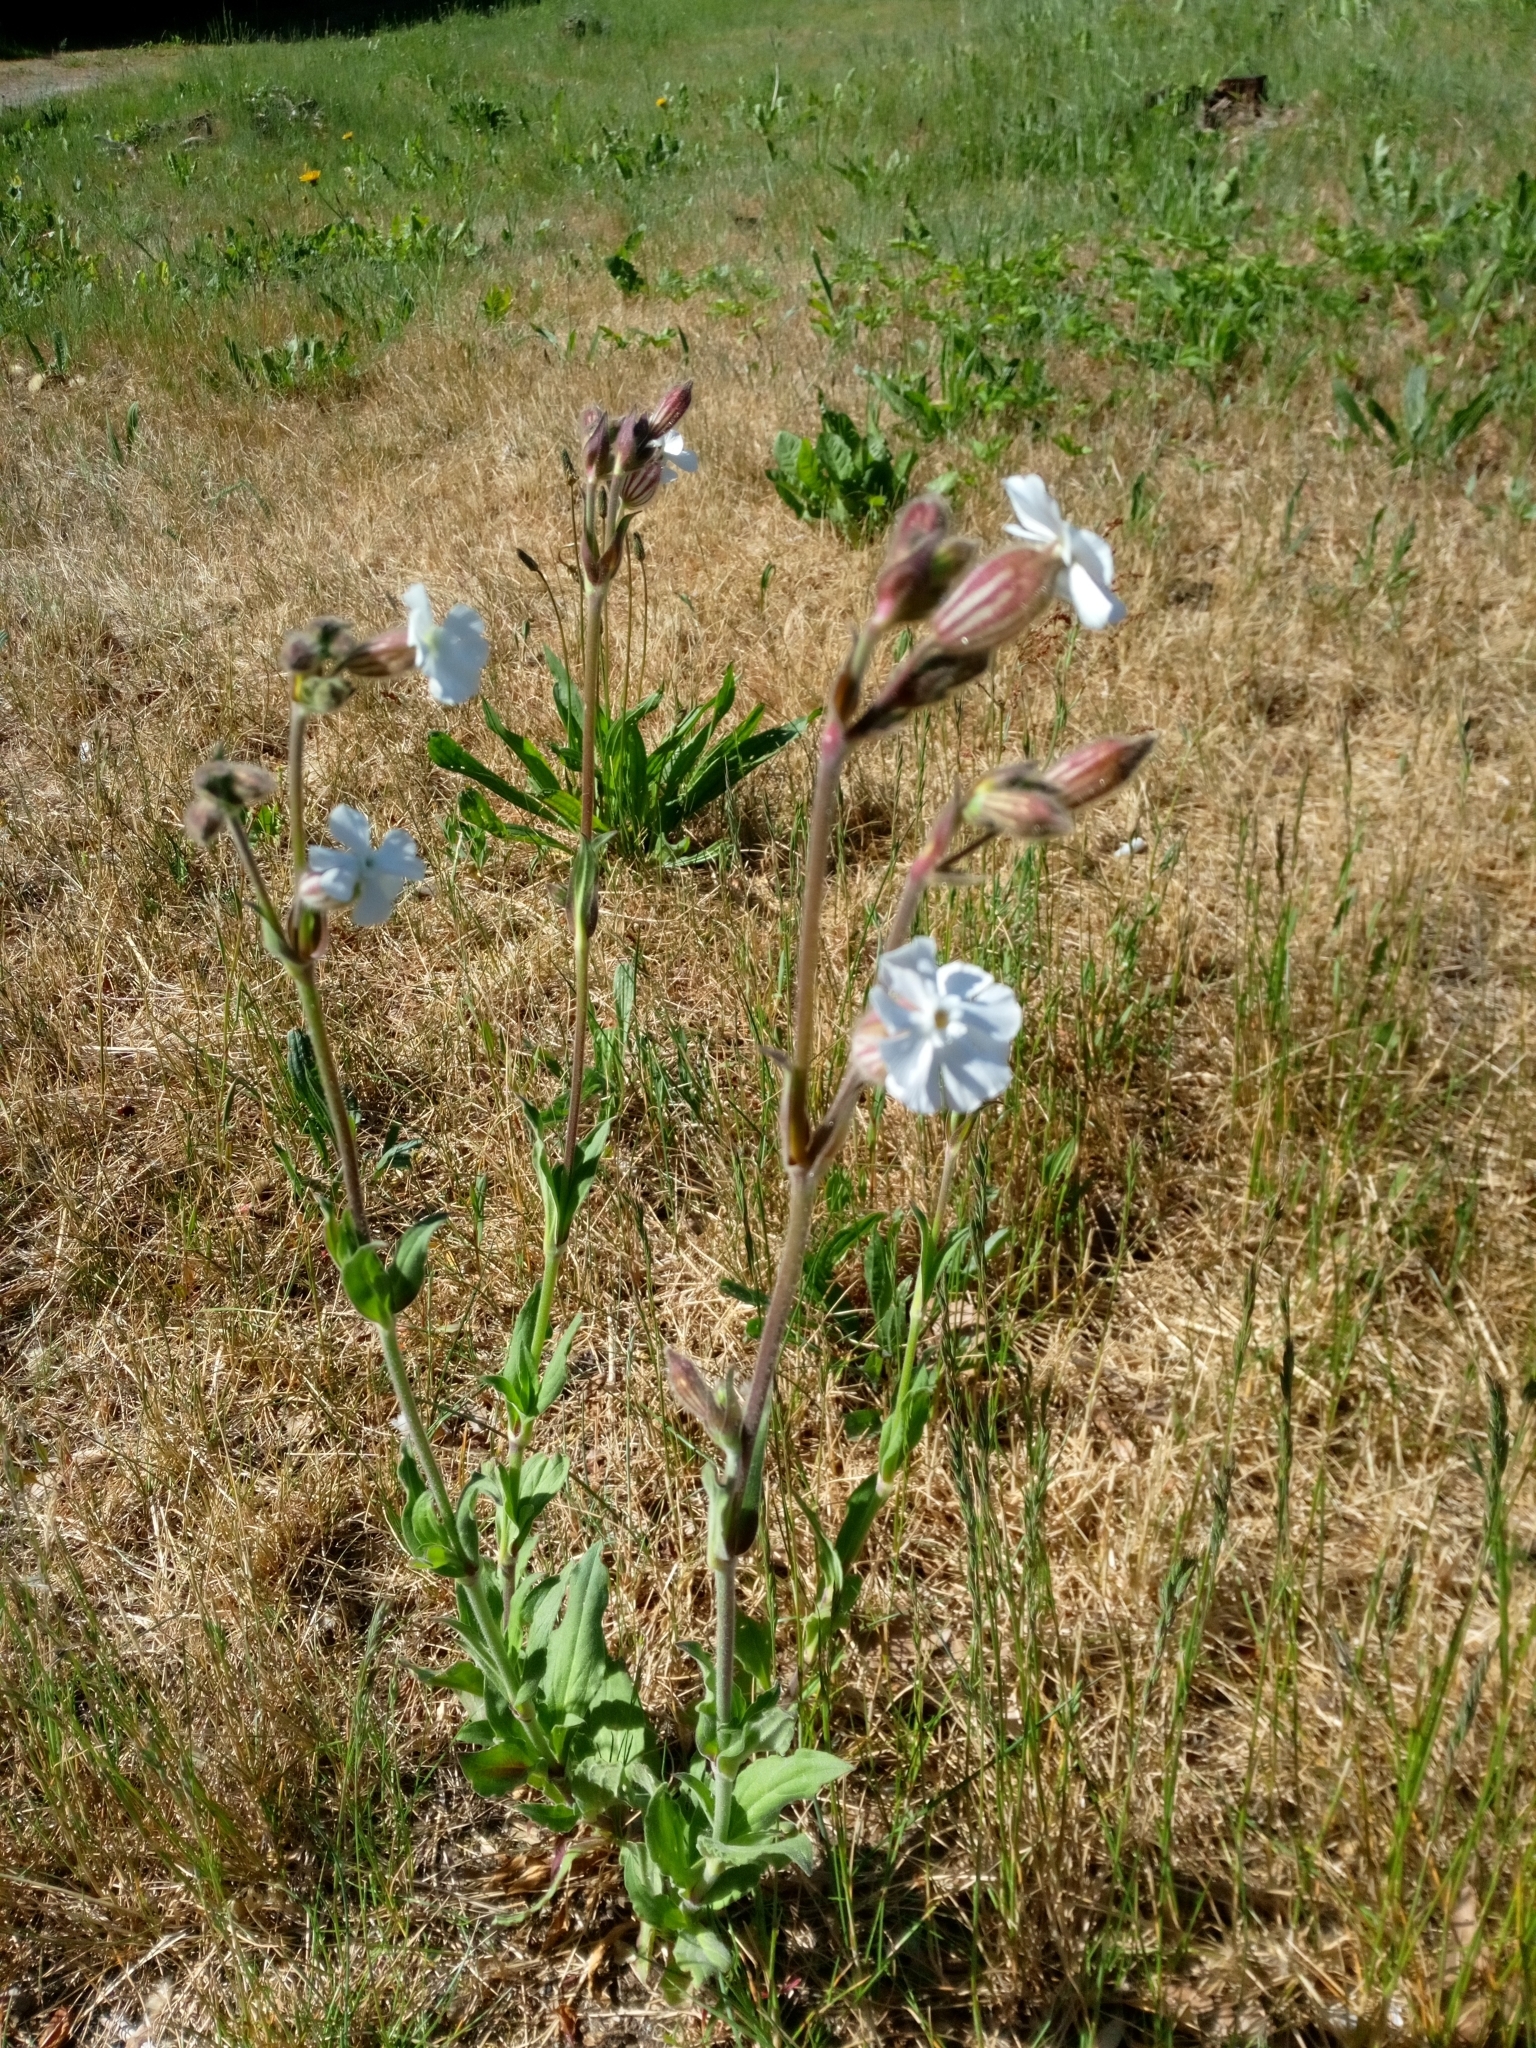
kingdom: Plantae
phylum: Tracheophyta
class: Magnoliopsida
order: Caryophyllales
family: Caryophyllaceae
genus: Silene
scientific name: Silene latifolia
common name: White campion
